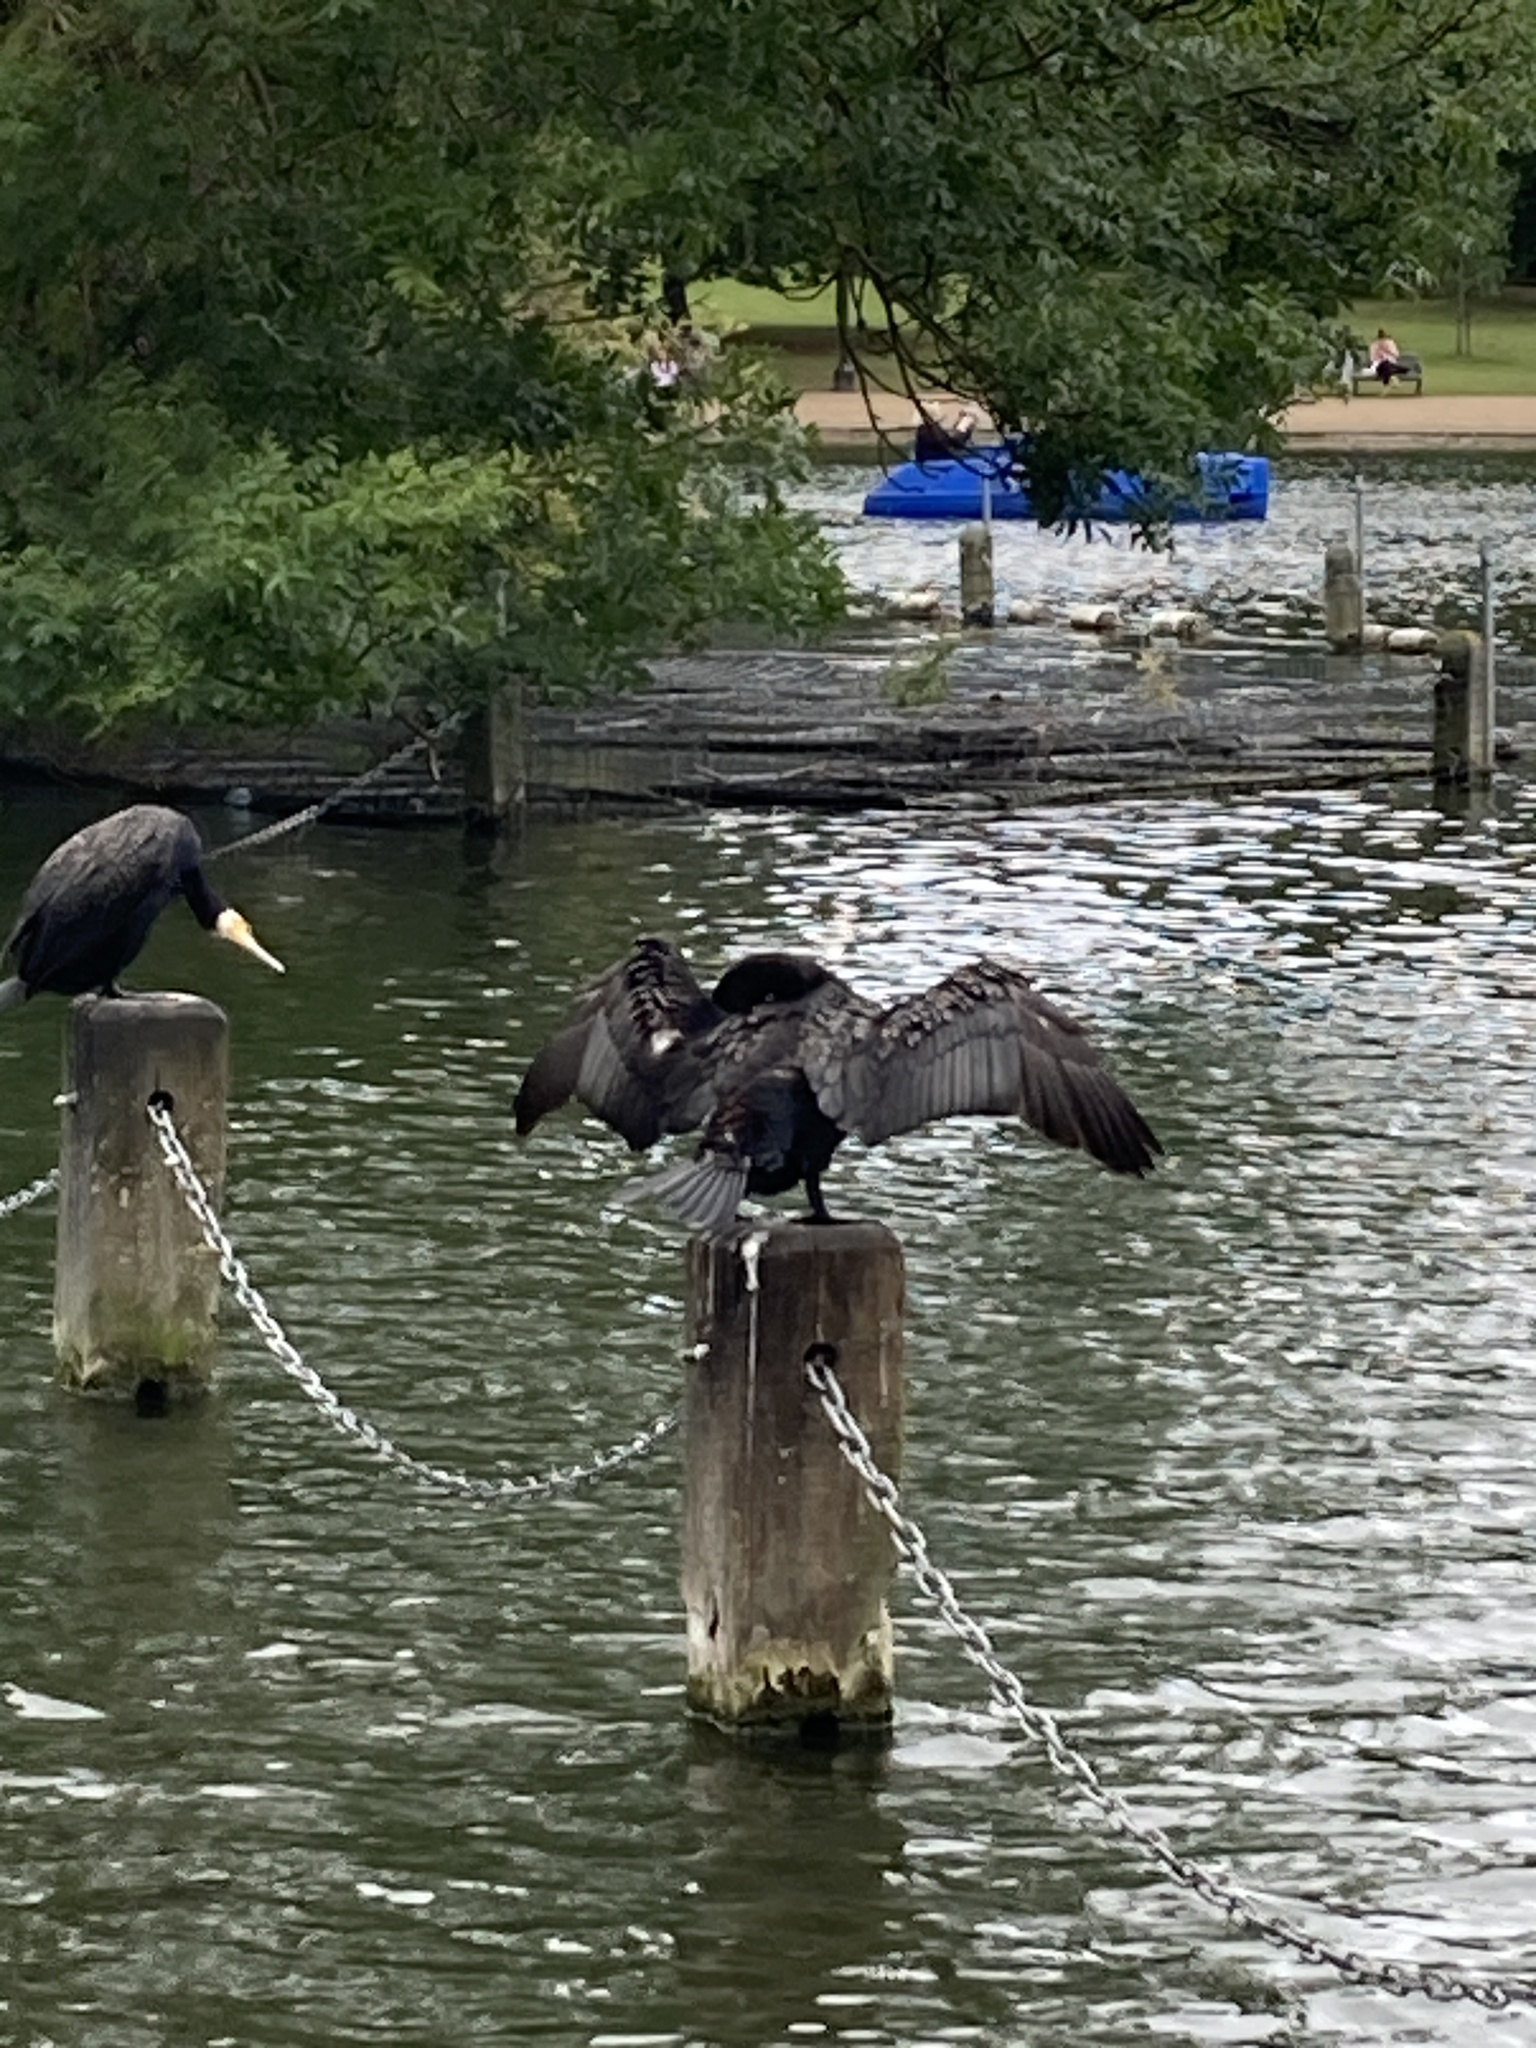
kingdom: Animalia
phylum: Chordata
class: Aves
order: Suliformes
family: Phalacrocoracidae
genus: Phalacrocorax
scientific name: Phalacrocorax carbo
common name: Great cormorant
